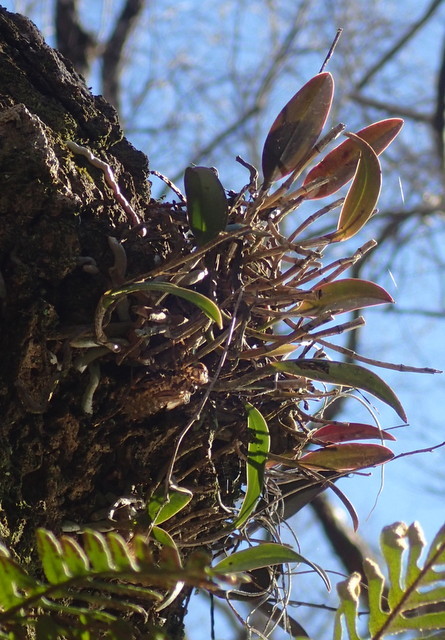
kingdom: Plantae
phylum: Tracheophyta
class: Liliopsida
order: Asparagales
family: Orchidaceae
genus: Epidendrum
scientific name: Epidendrum conopseum
